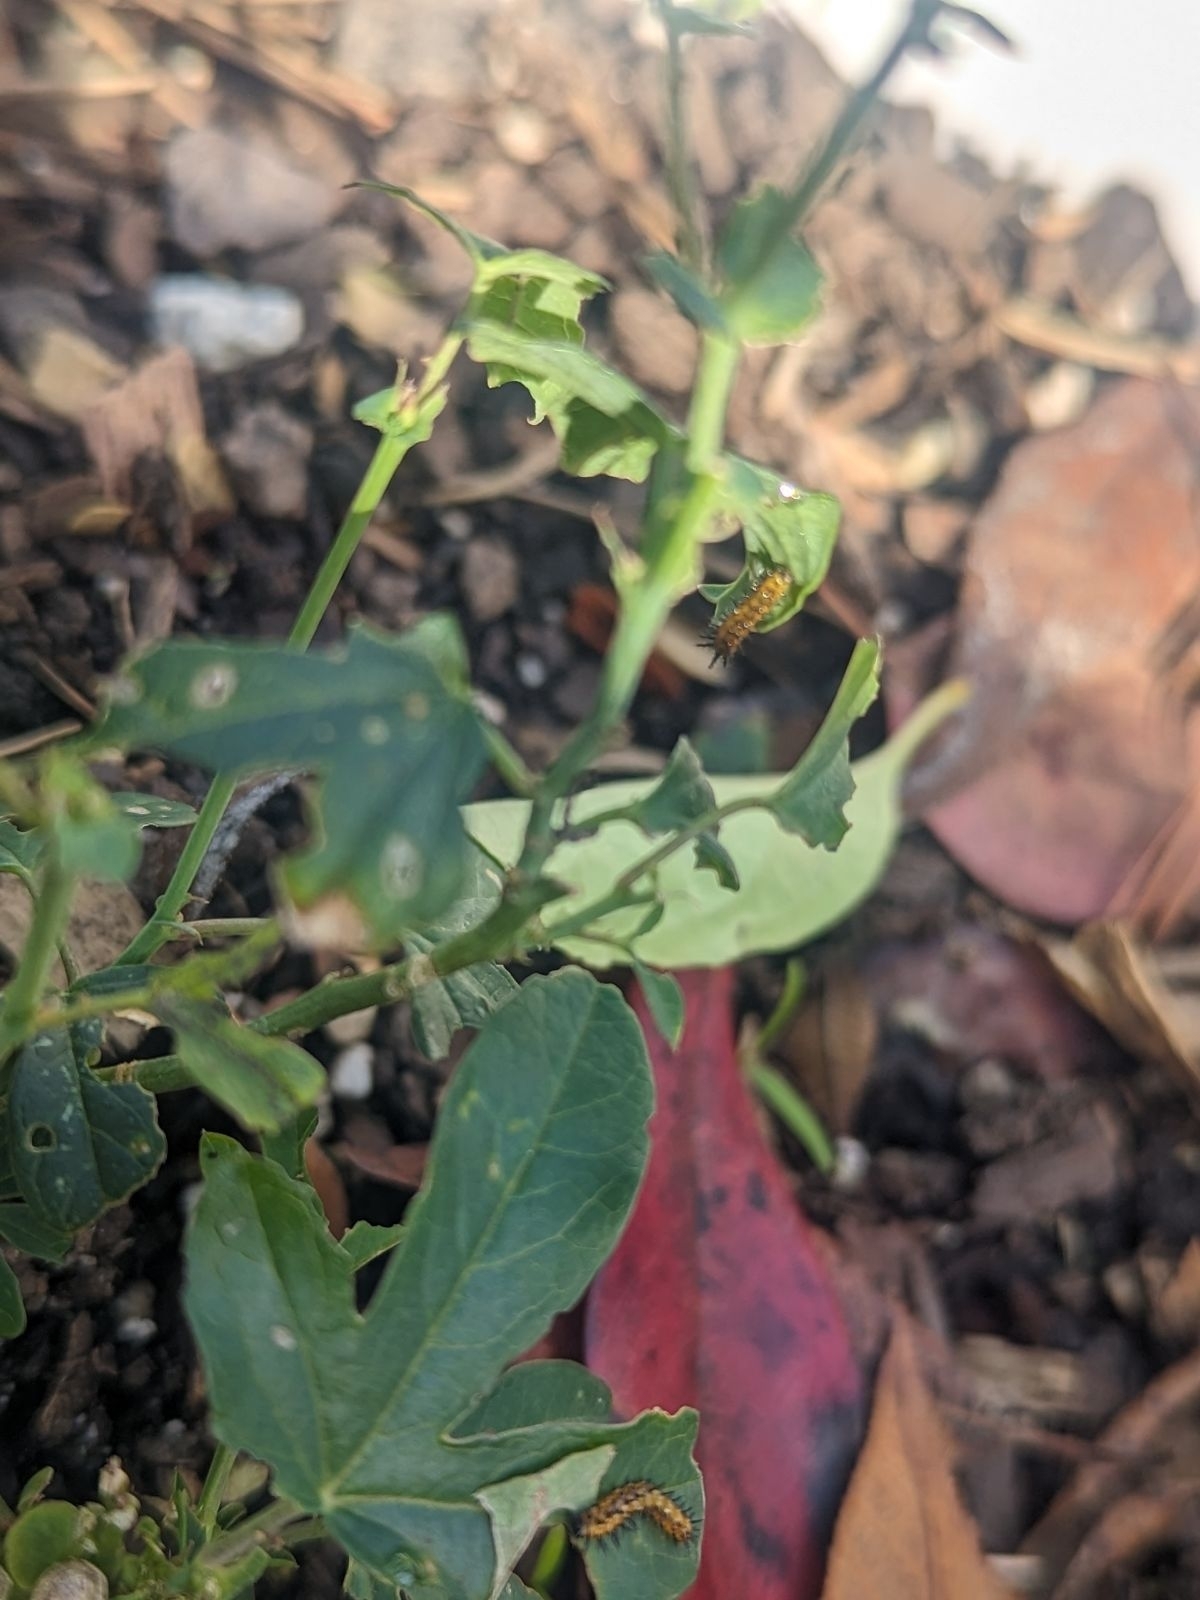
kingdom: Animalia
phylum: Arthropoda
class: Insecta
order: Lepidoptera
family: Nymphalidae
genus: Dione
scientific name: Dione vanillae
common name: Gulf fritillary
